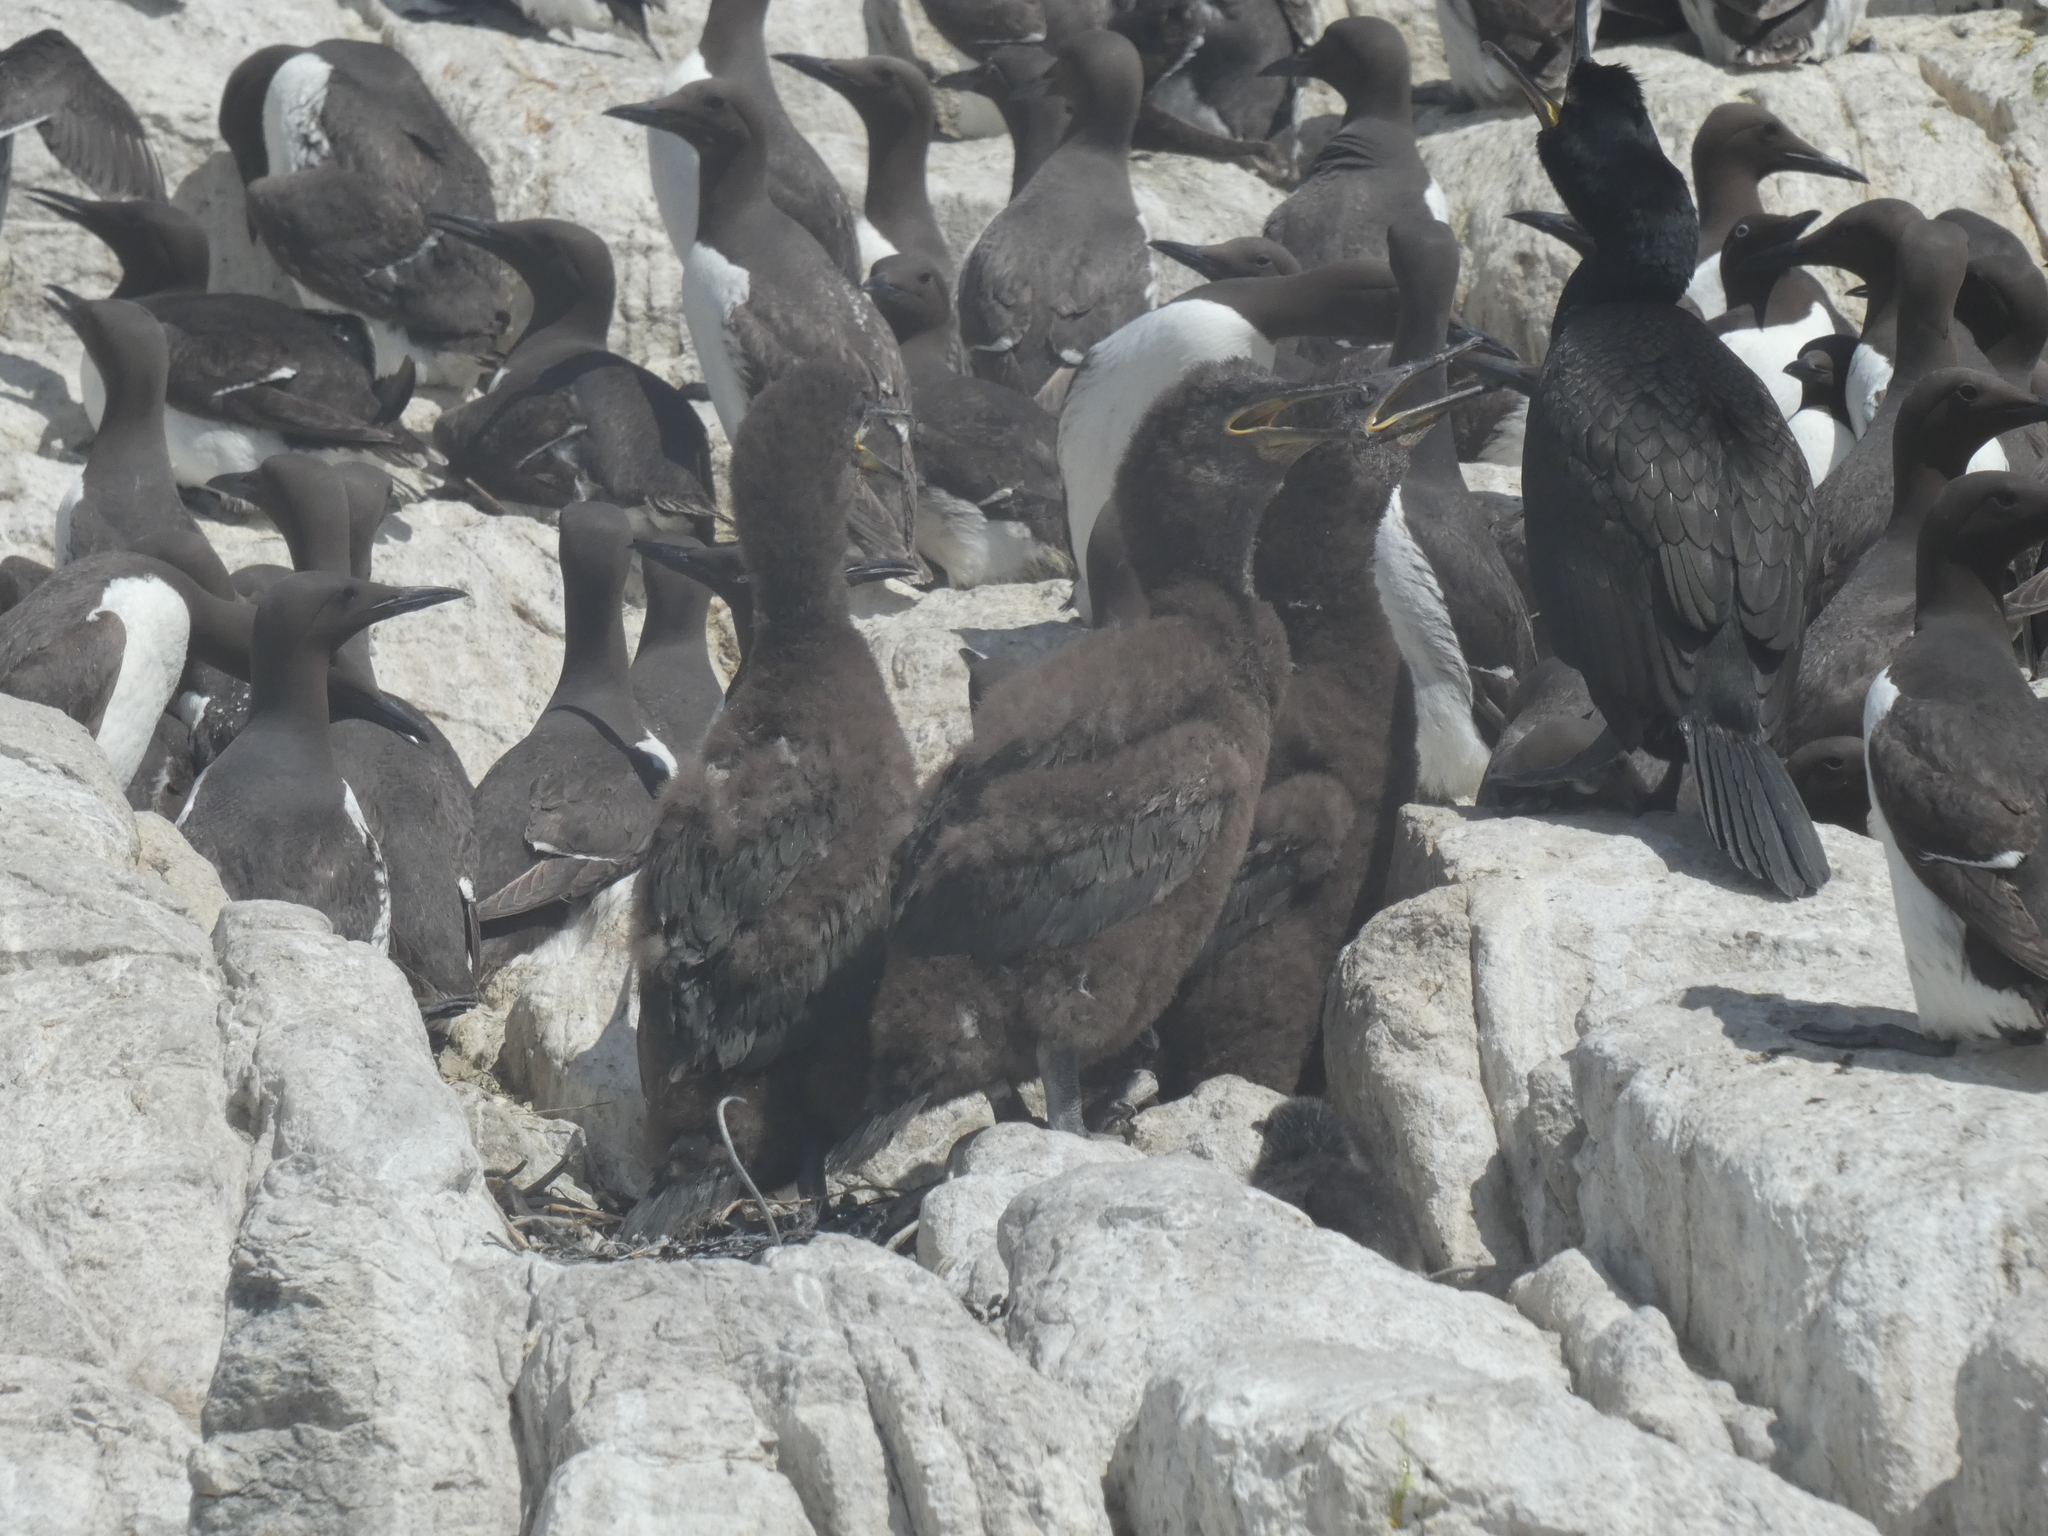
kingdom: Animalia
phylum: Chordata
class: Aves
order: Suliformes
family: Phalacrocoracidae
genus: Phalacrocorax
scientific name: Phalacrocorax aristotelis
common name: European shag
